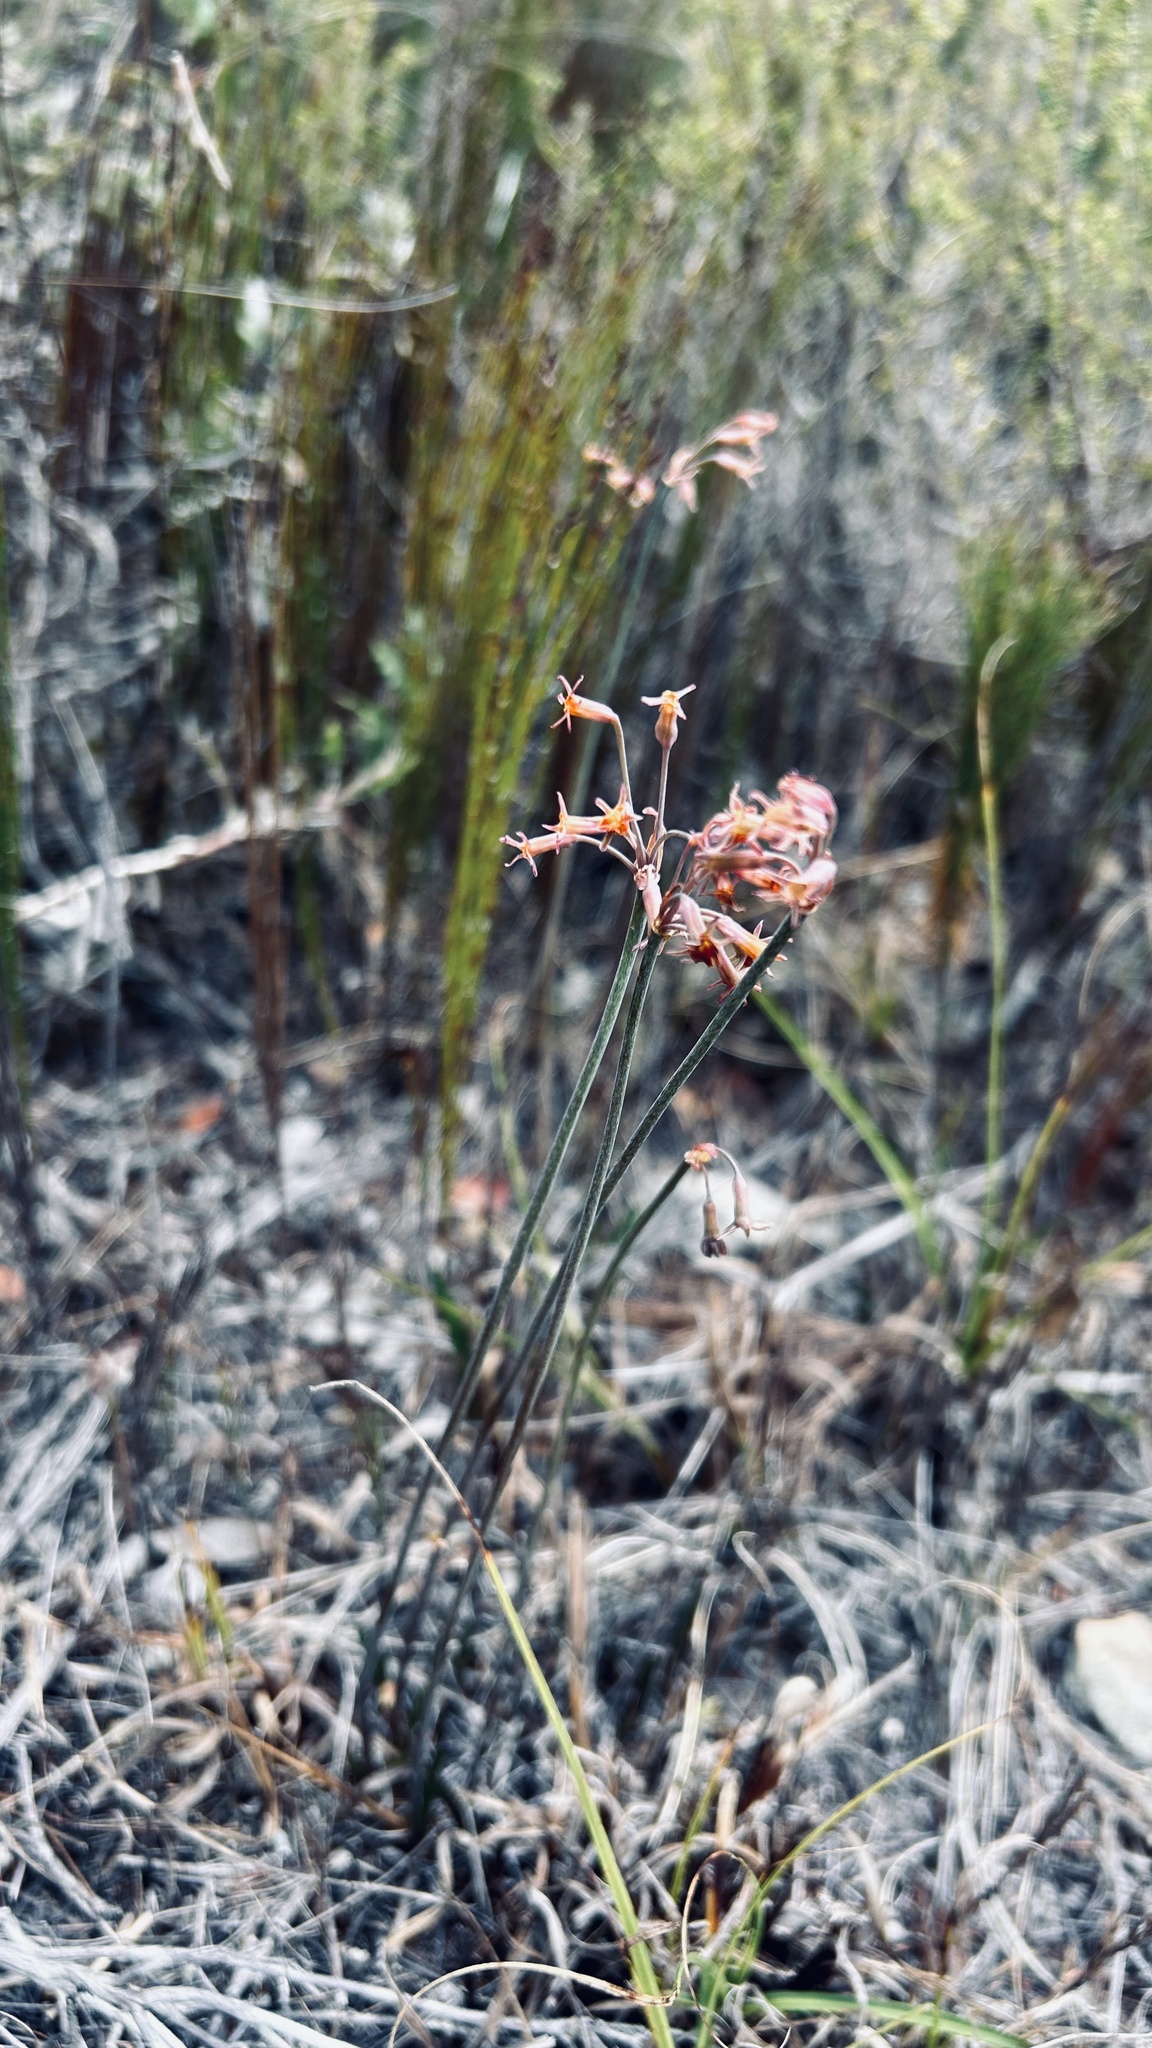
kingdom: Plantae
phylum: Tracheophyta
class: Liliopsida
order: Asparagales
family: Amaryllidaceae
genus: Tulbaghia
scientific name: Tulbaghia capensis
